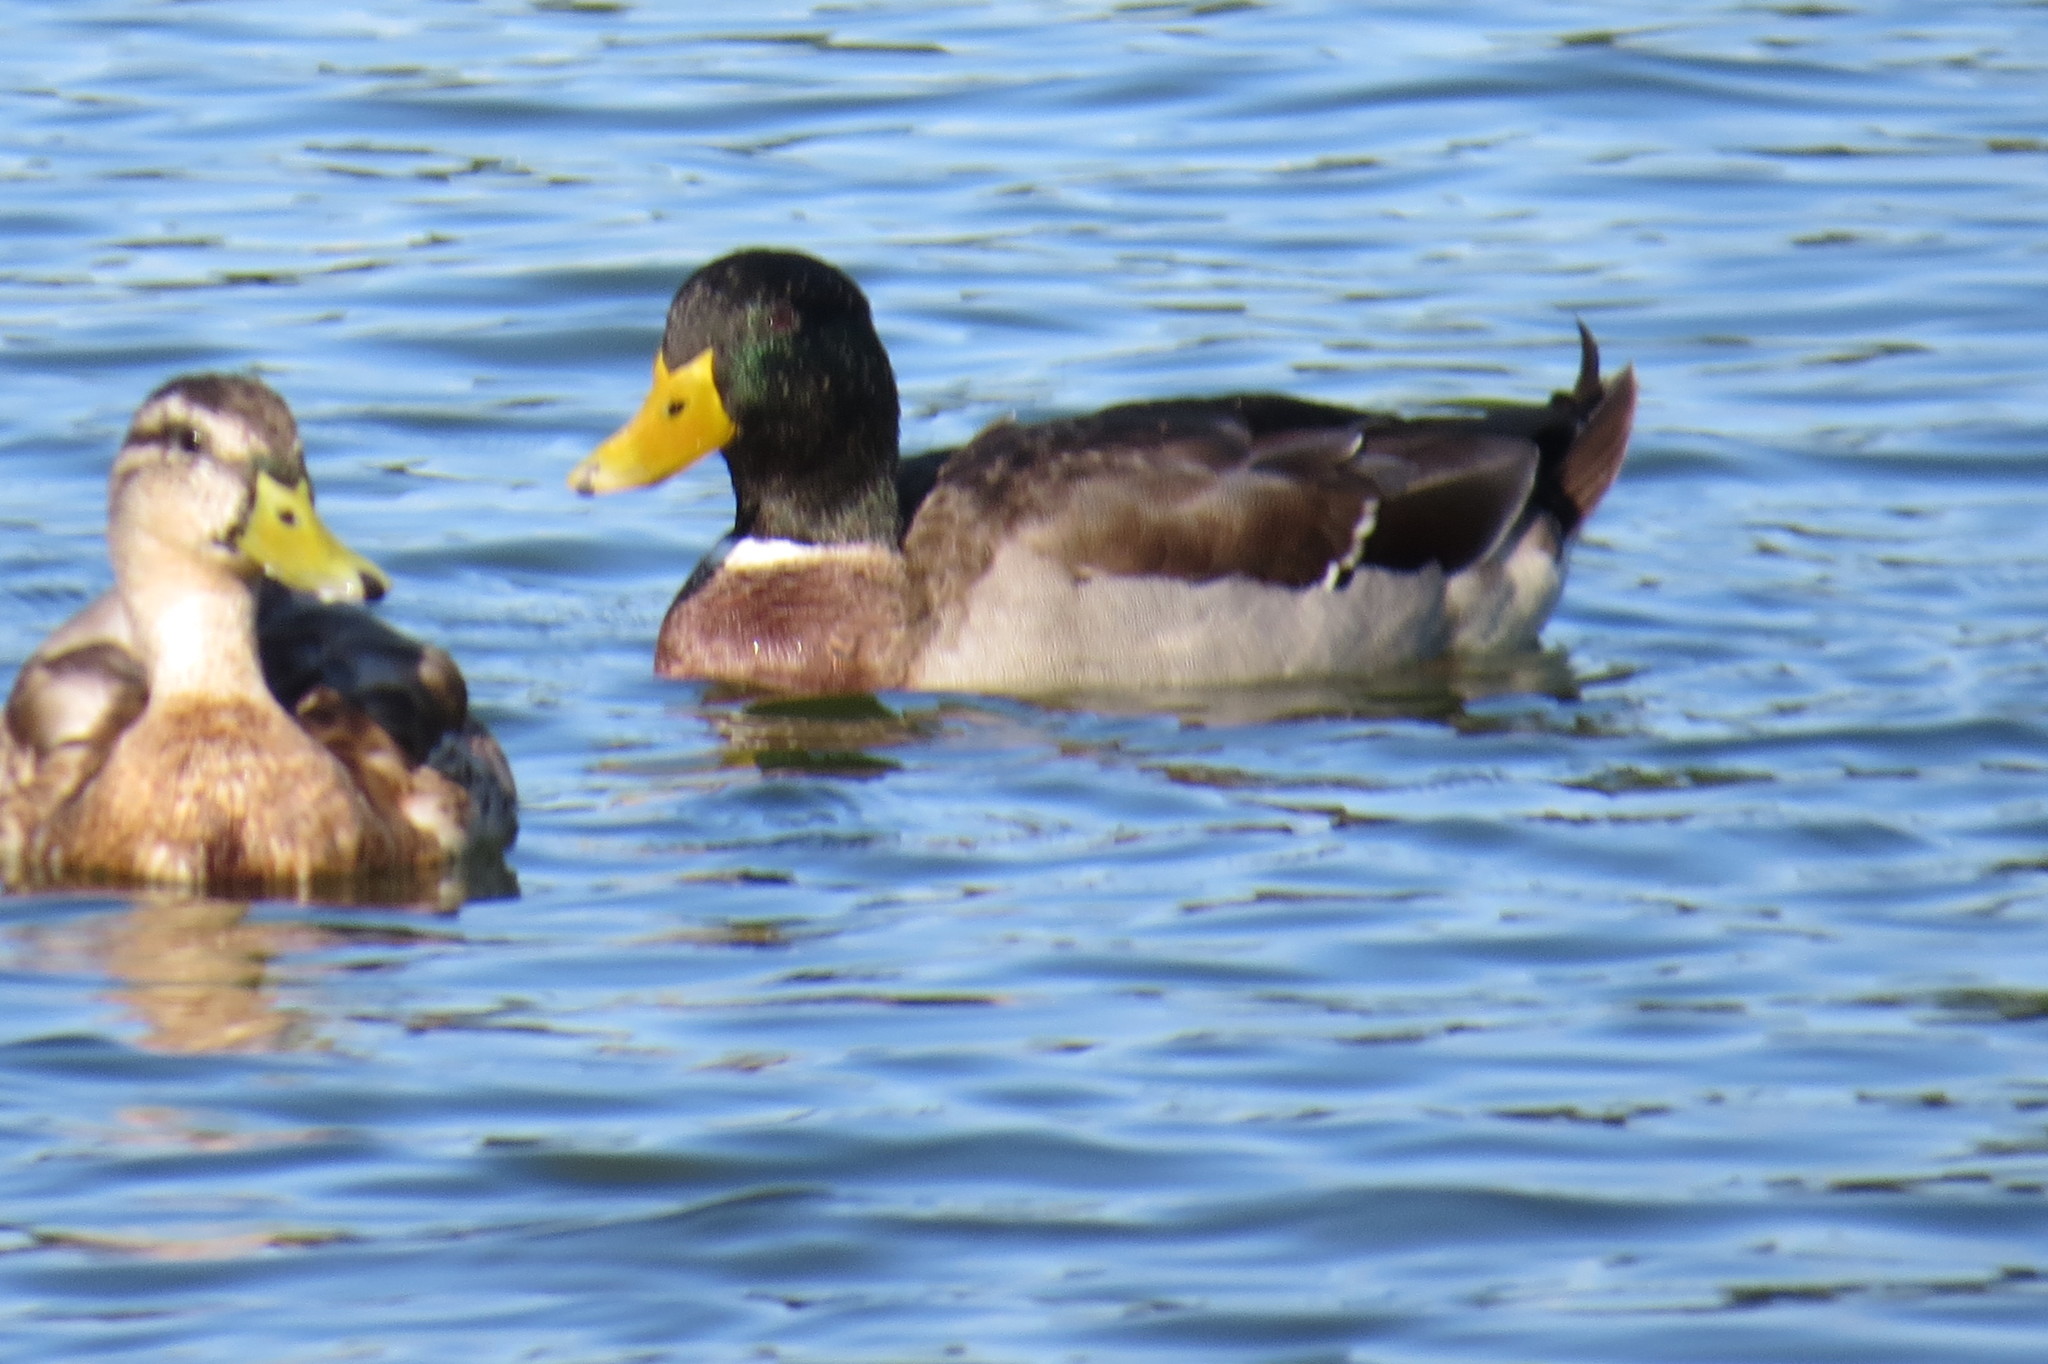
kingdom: Animalia
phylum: Chordata
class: Aves
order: Anseriformes
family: Anatidae
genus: Anas
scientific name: Anas platyrhynchos
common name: Mallard
